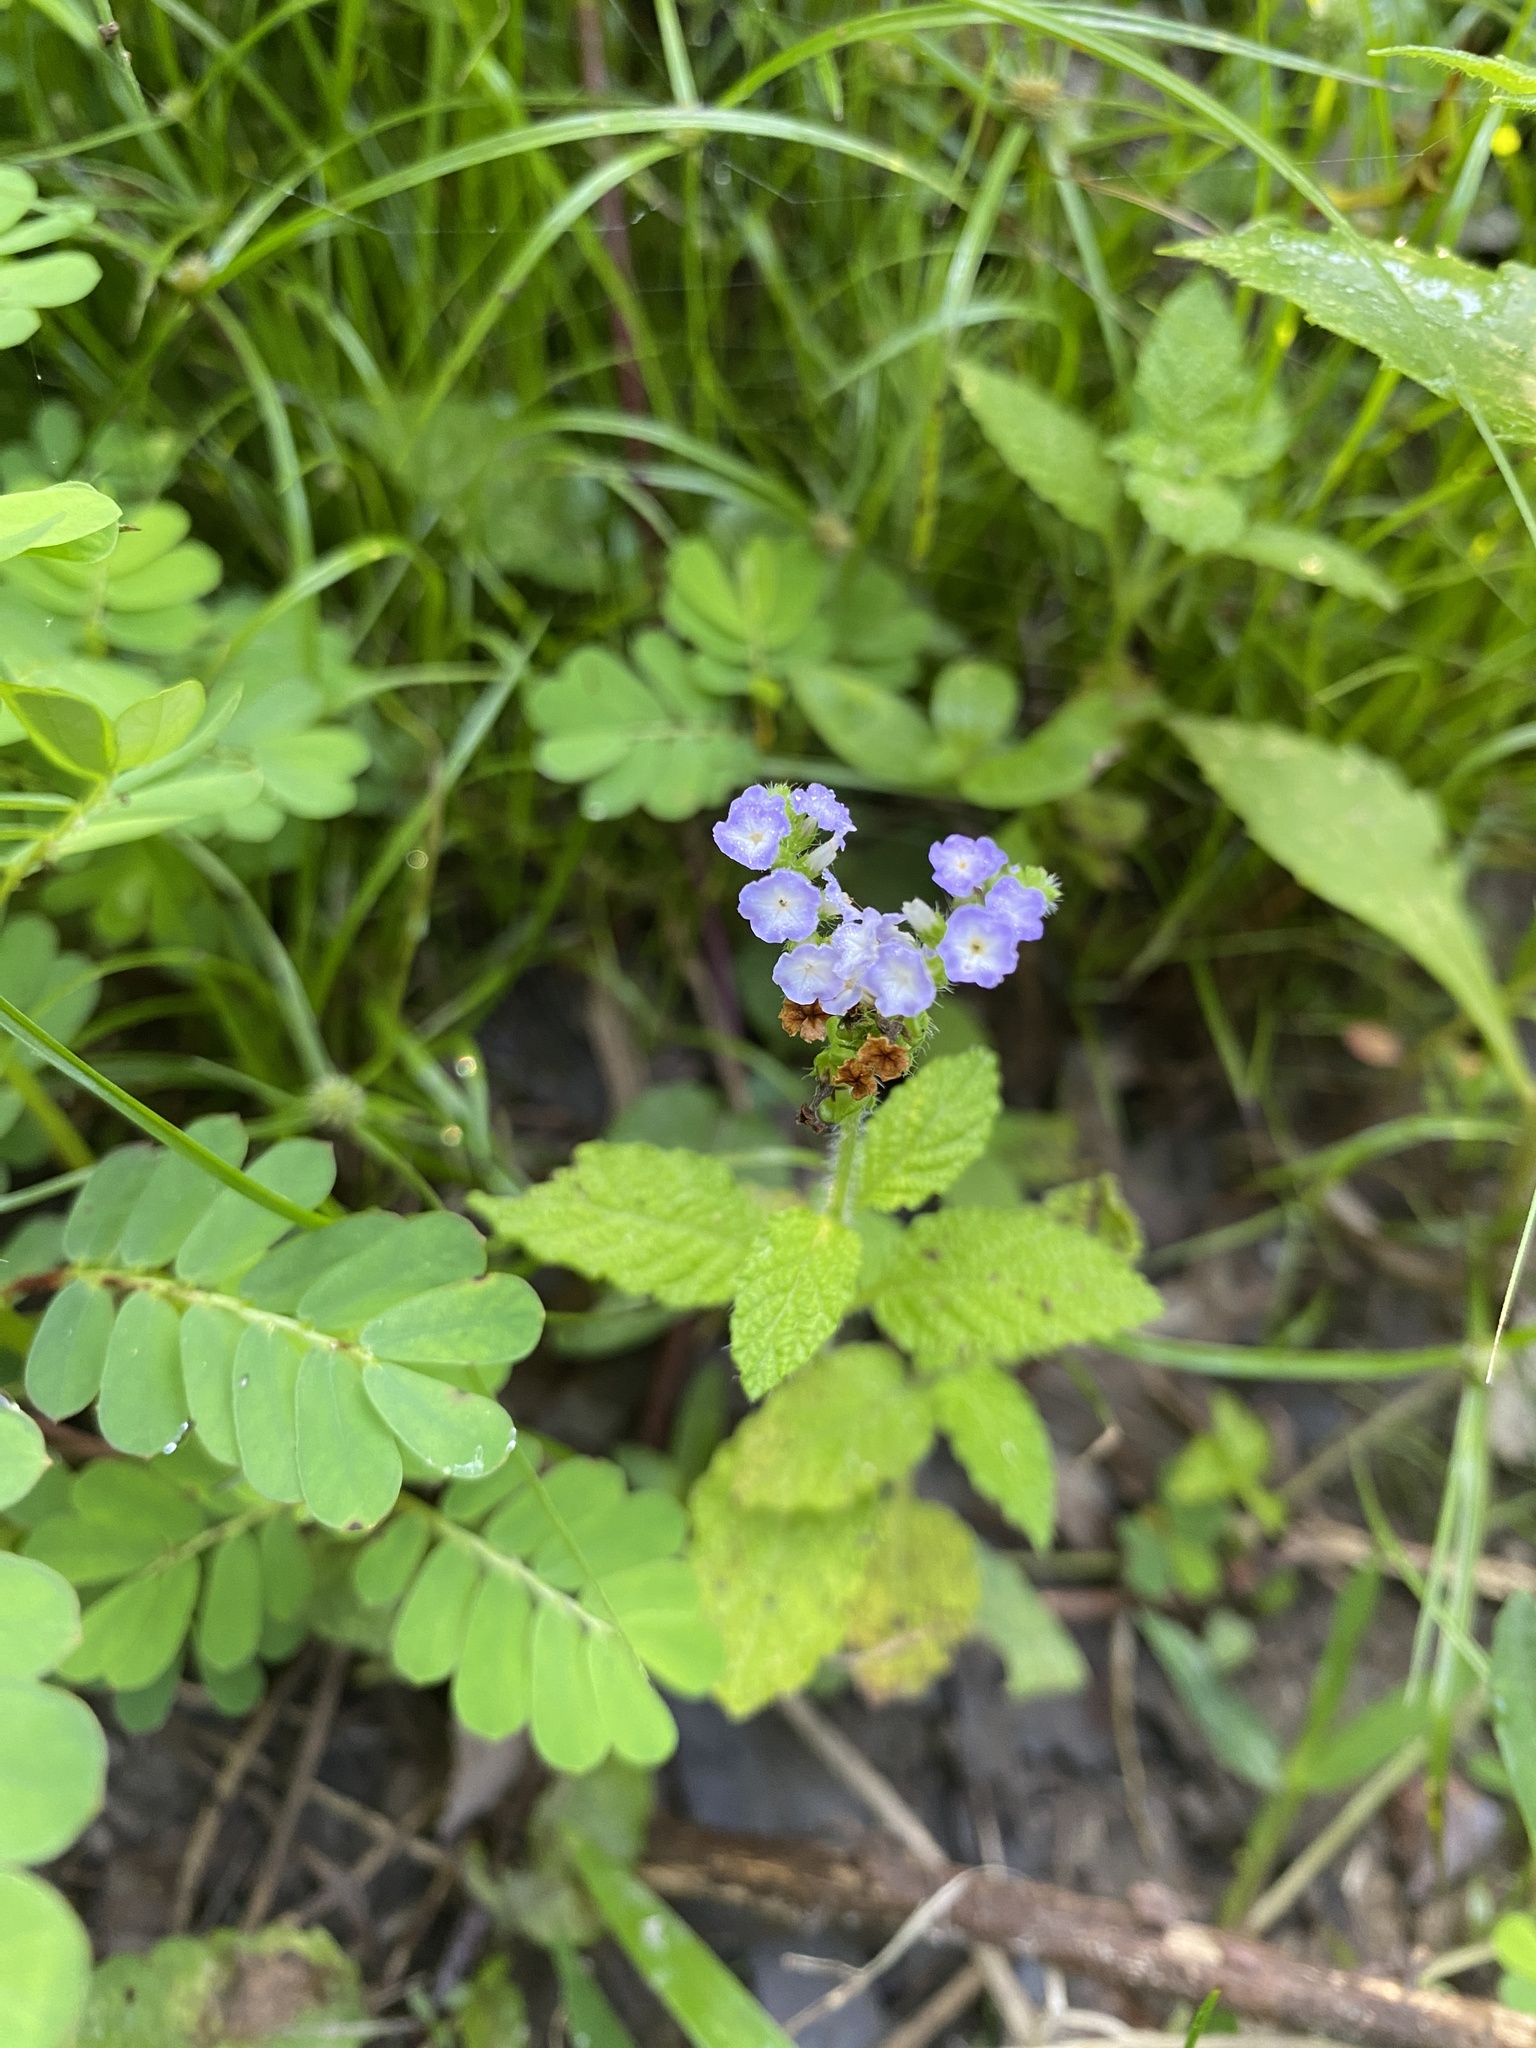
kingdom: Plantae
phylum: Tracheophyta
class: Magnoliopsida
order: Boraginales
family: Heliotropiaceae
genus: Heliotropium
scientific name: Heliotropium indicum
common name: Indian heliotrope
